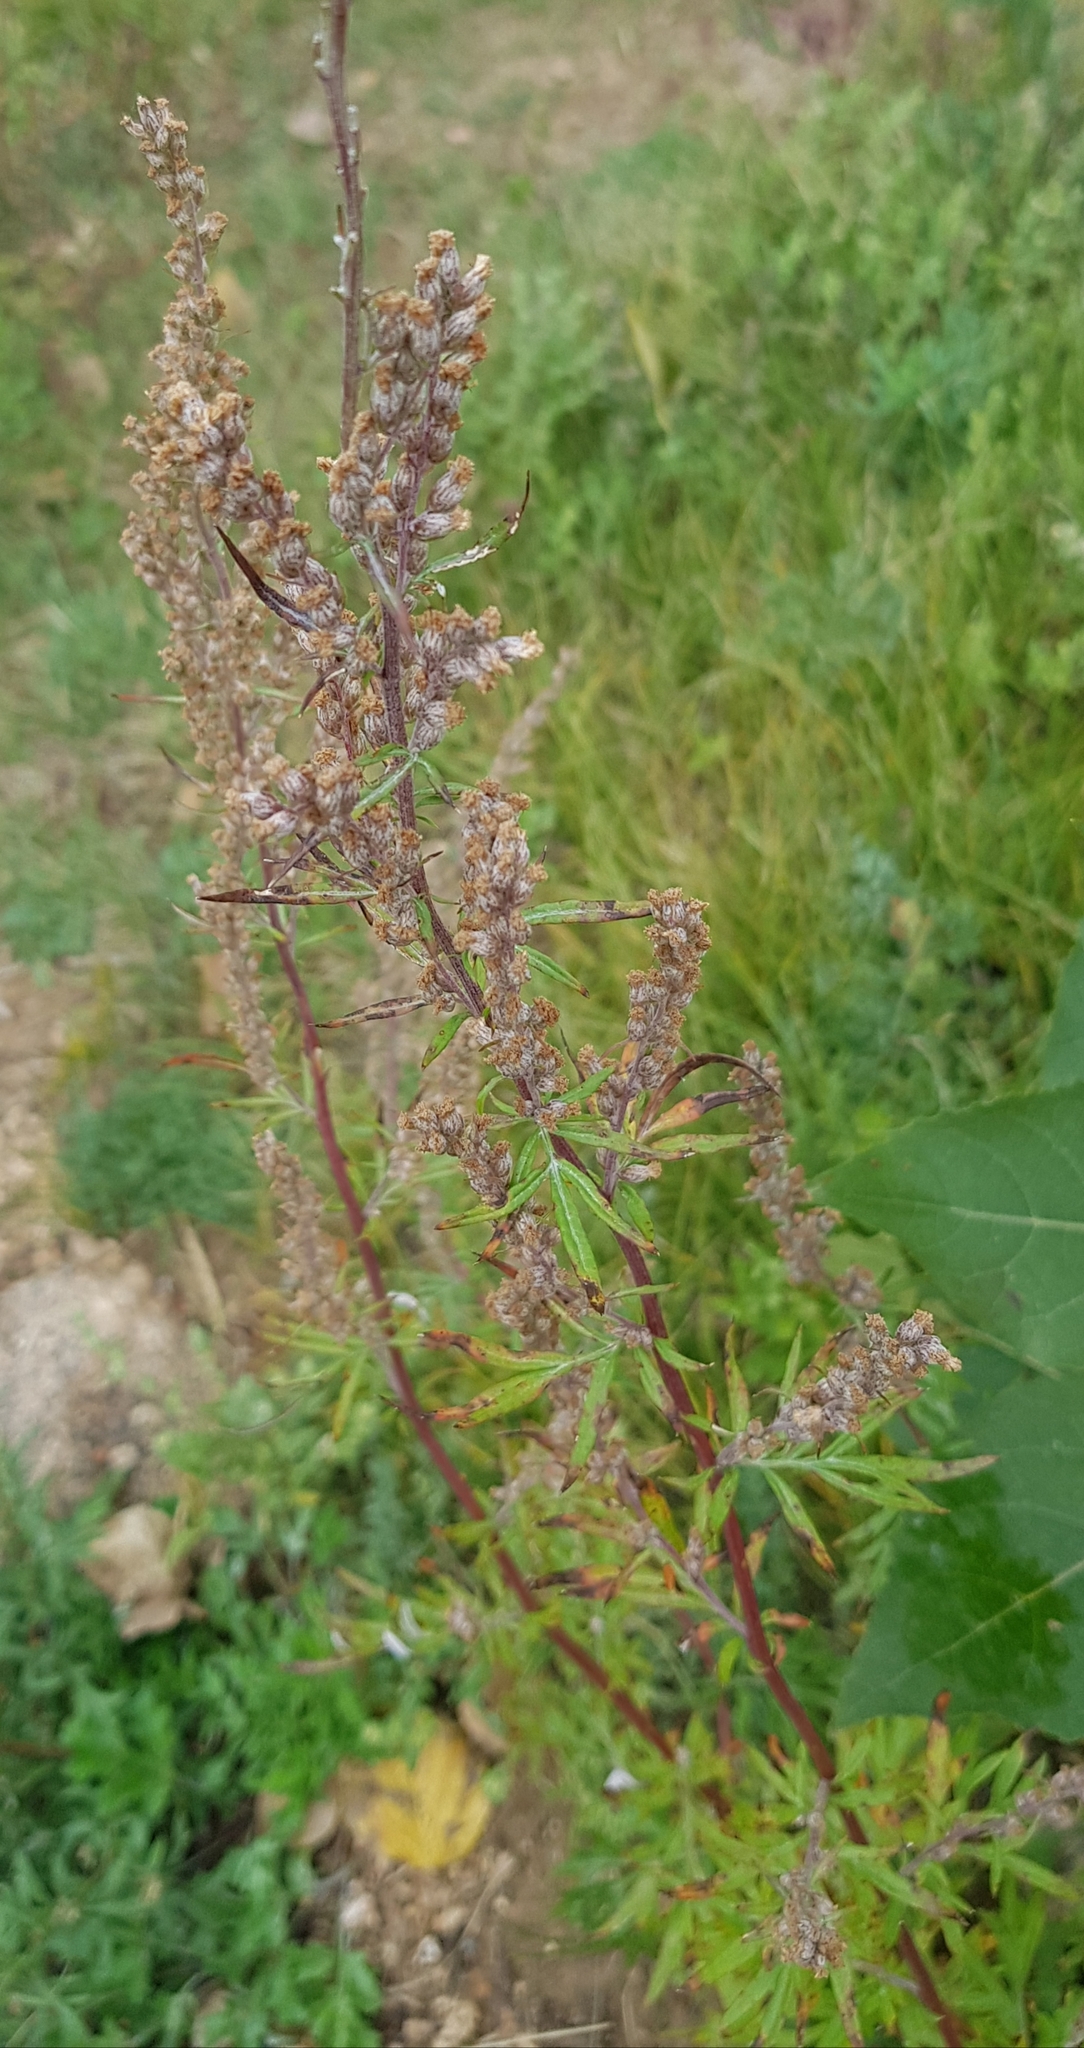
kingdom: Plantae
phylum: Tracheophyta
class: Magnoliopsida
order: Asterales
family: Asteraceae
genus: Artemisia
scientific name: Artemisia vulgaris
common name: Mugwort
